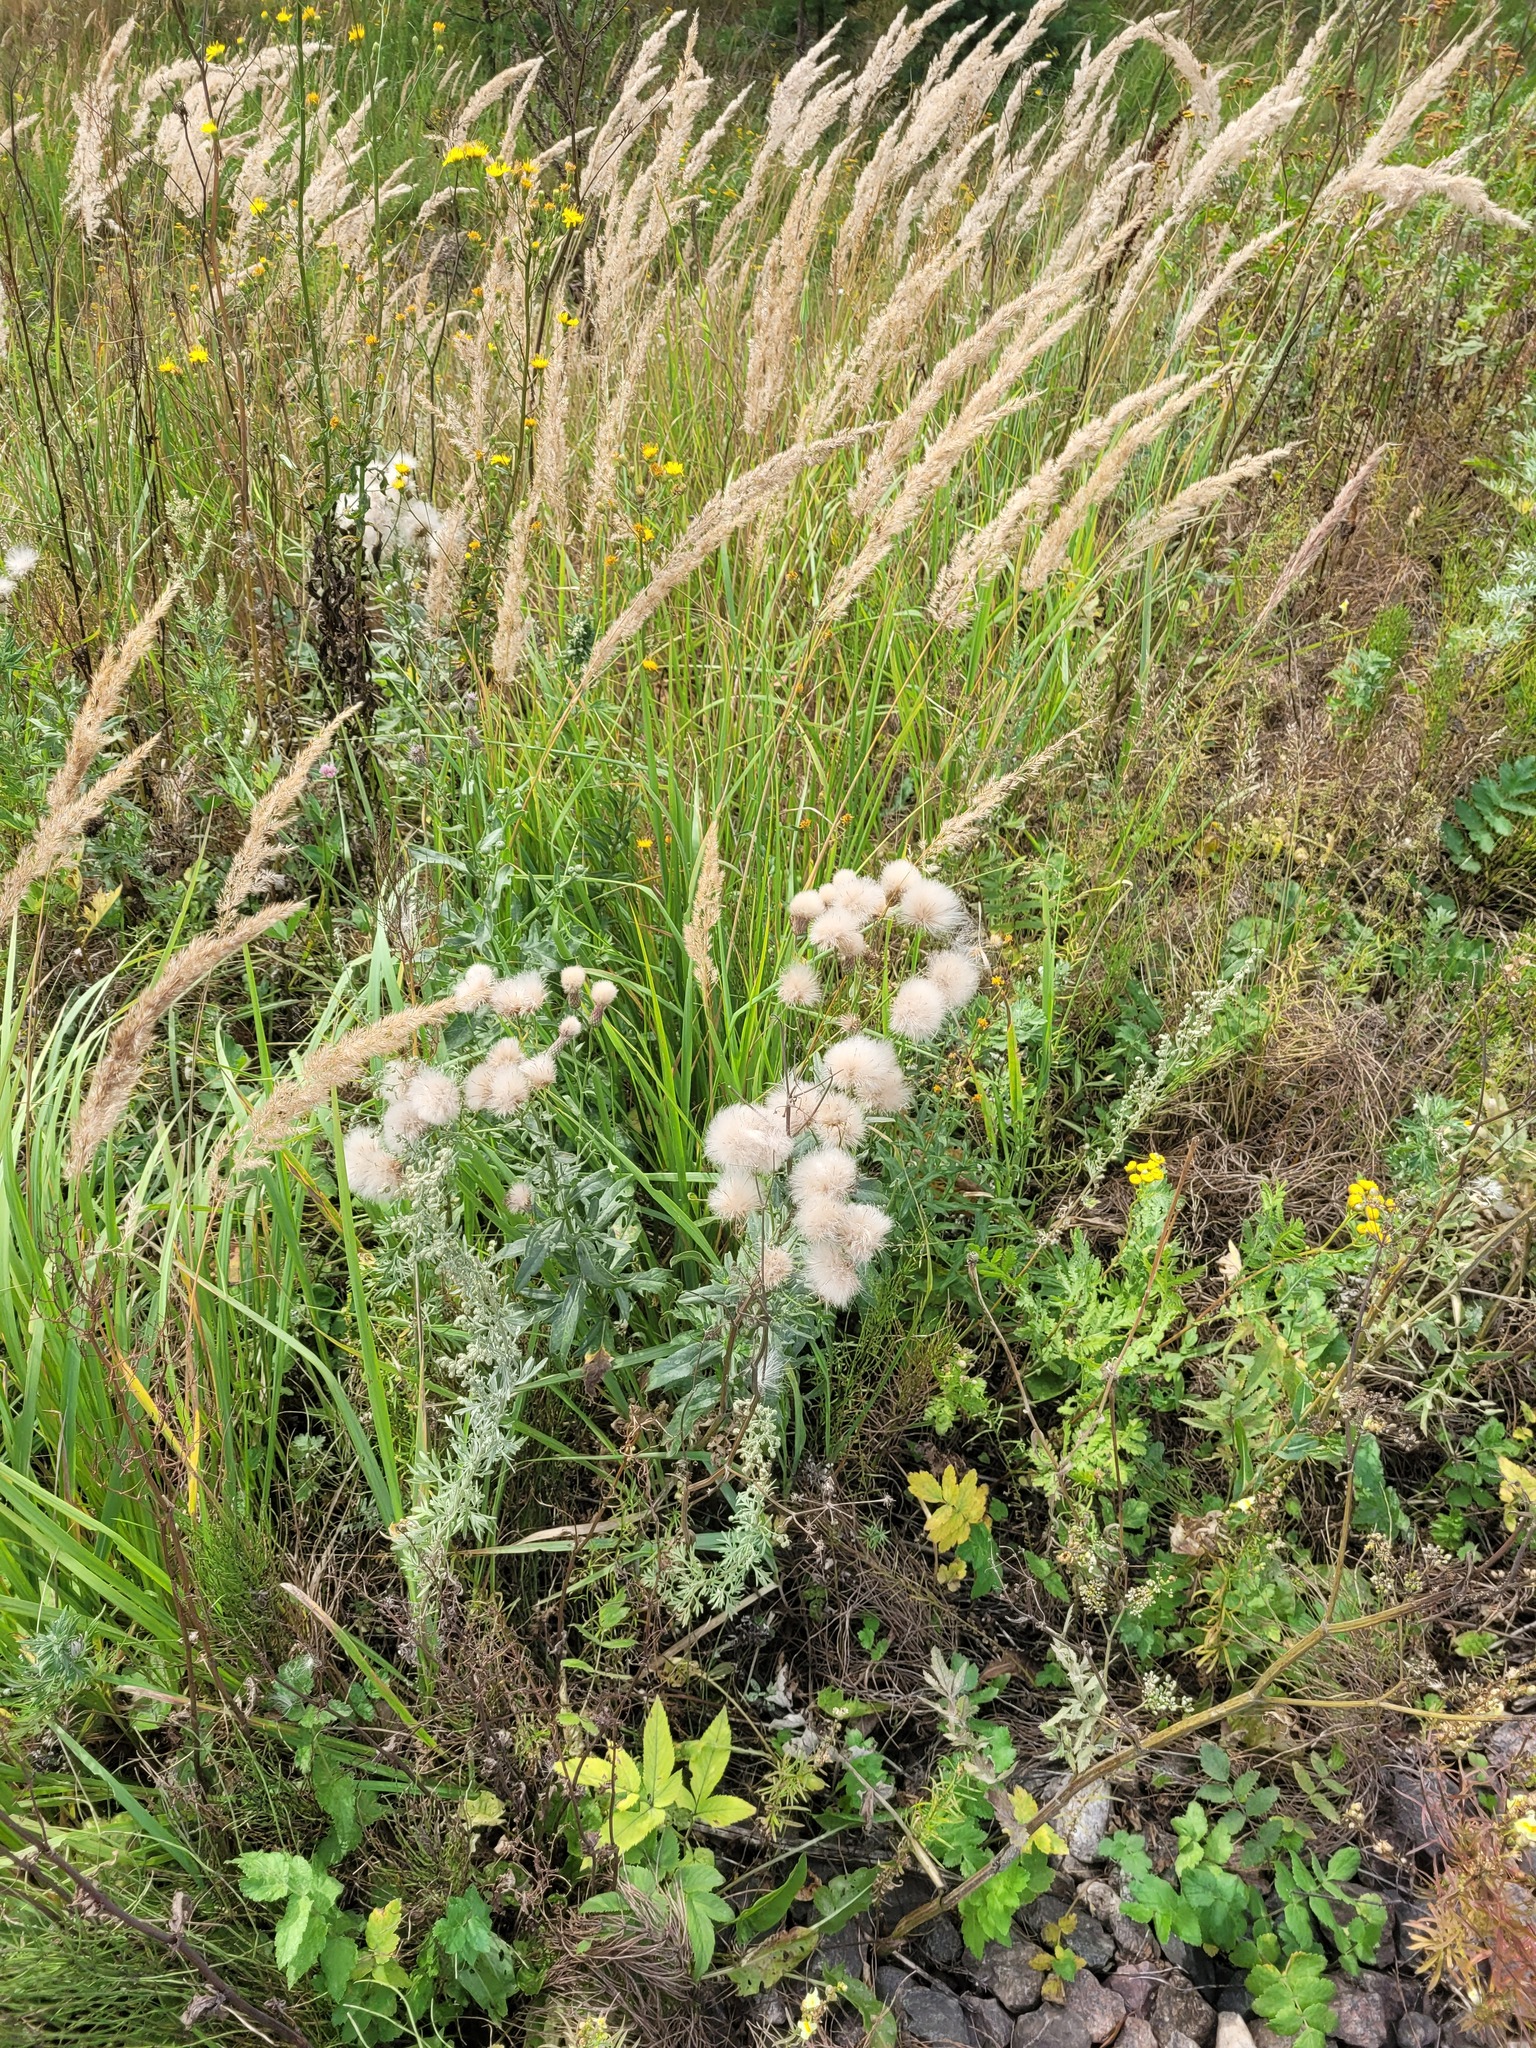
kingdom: Plantae
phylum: Tracheophyta
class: Magnoliopsida
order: Asterales
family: Asteraceae
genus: Cirsium
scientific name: Cirsium arvense
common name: Creeping thistle
